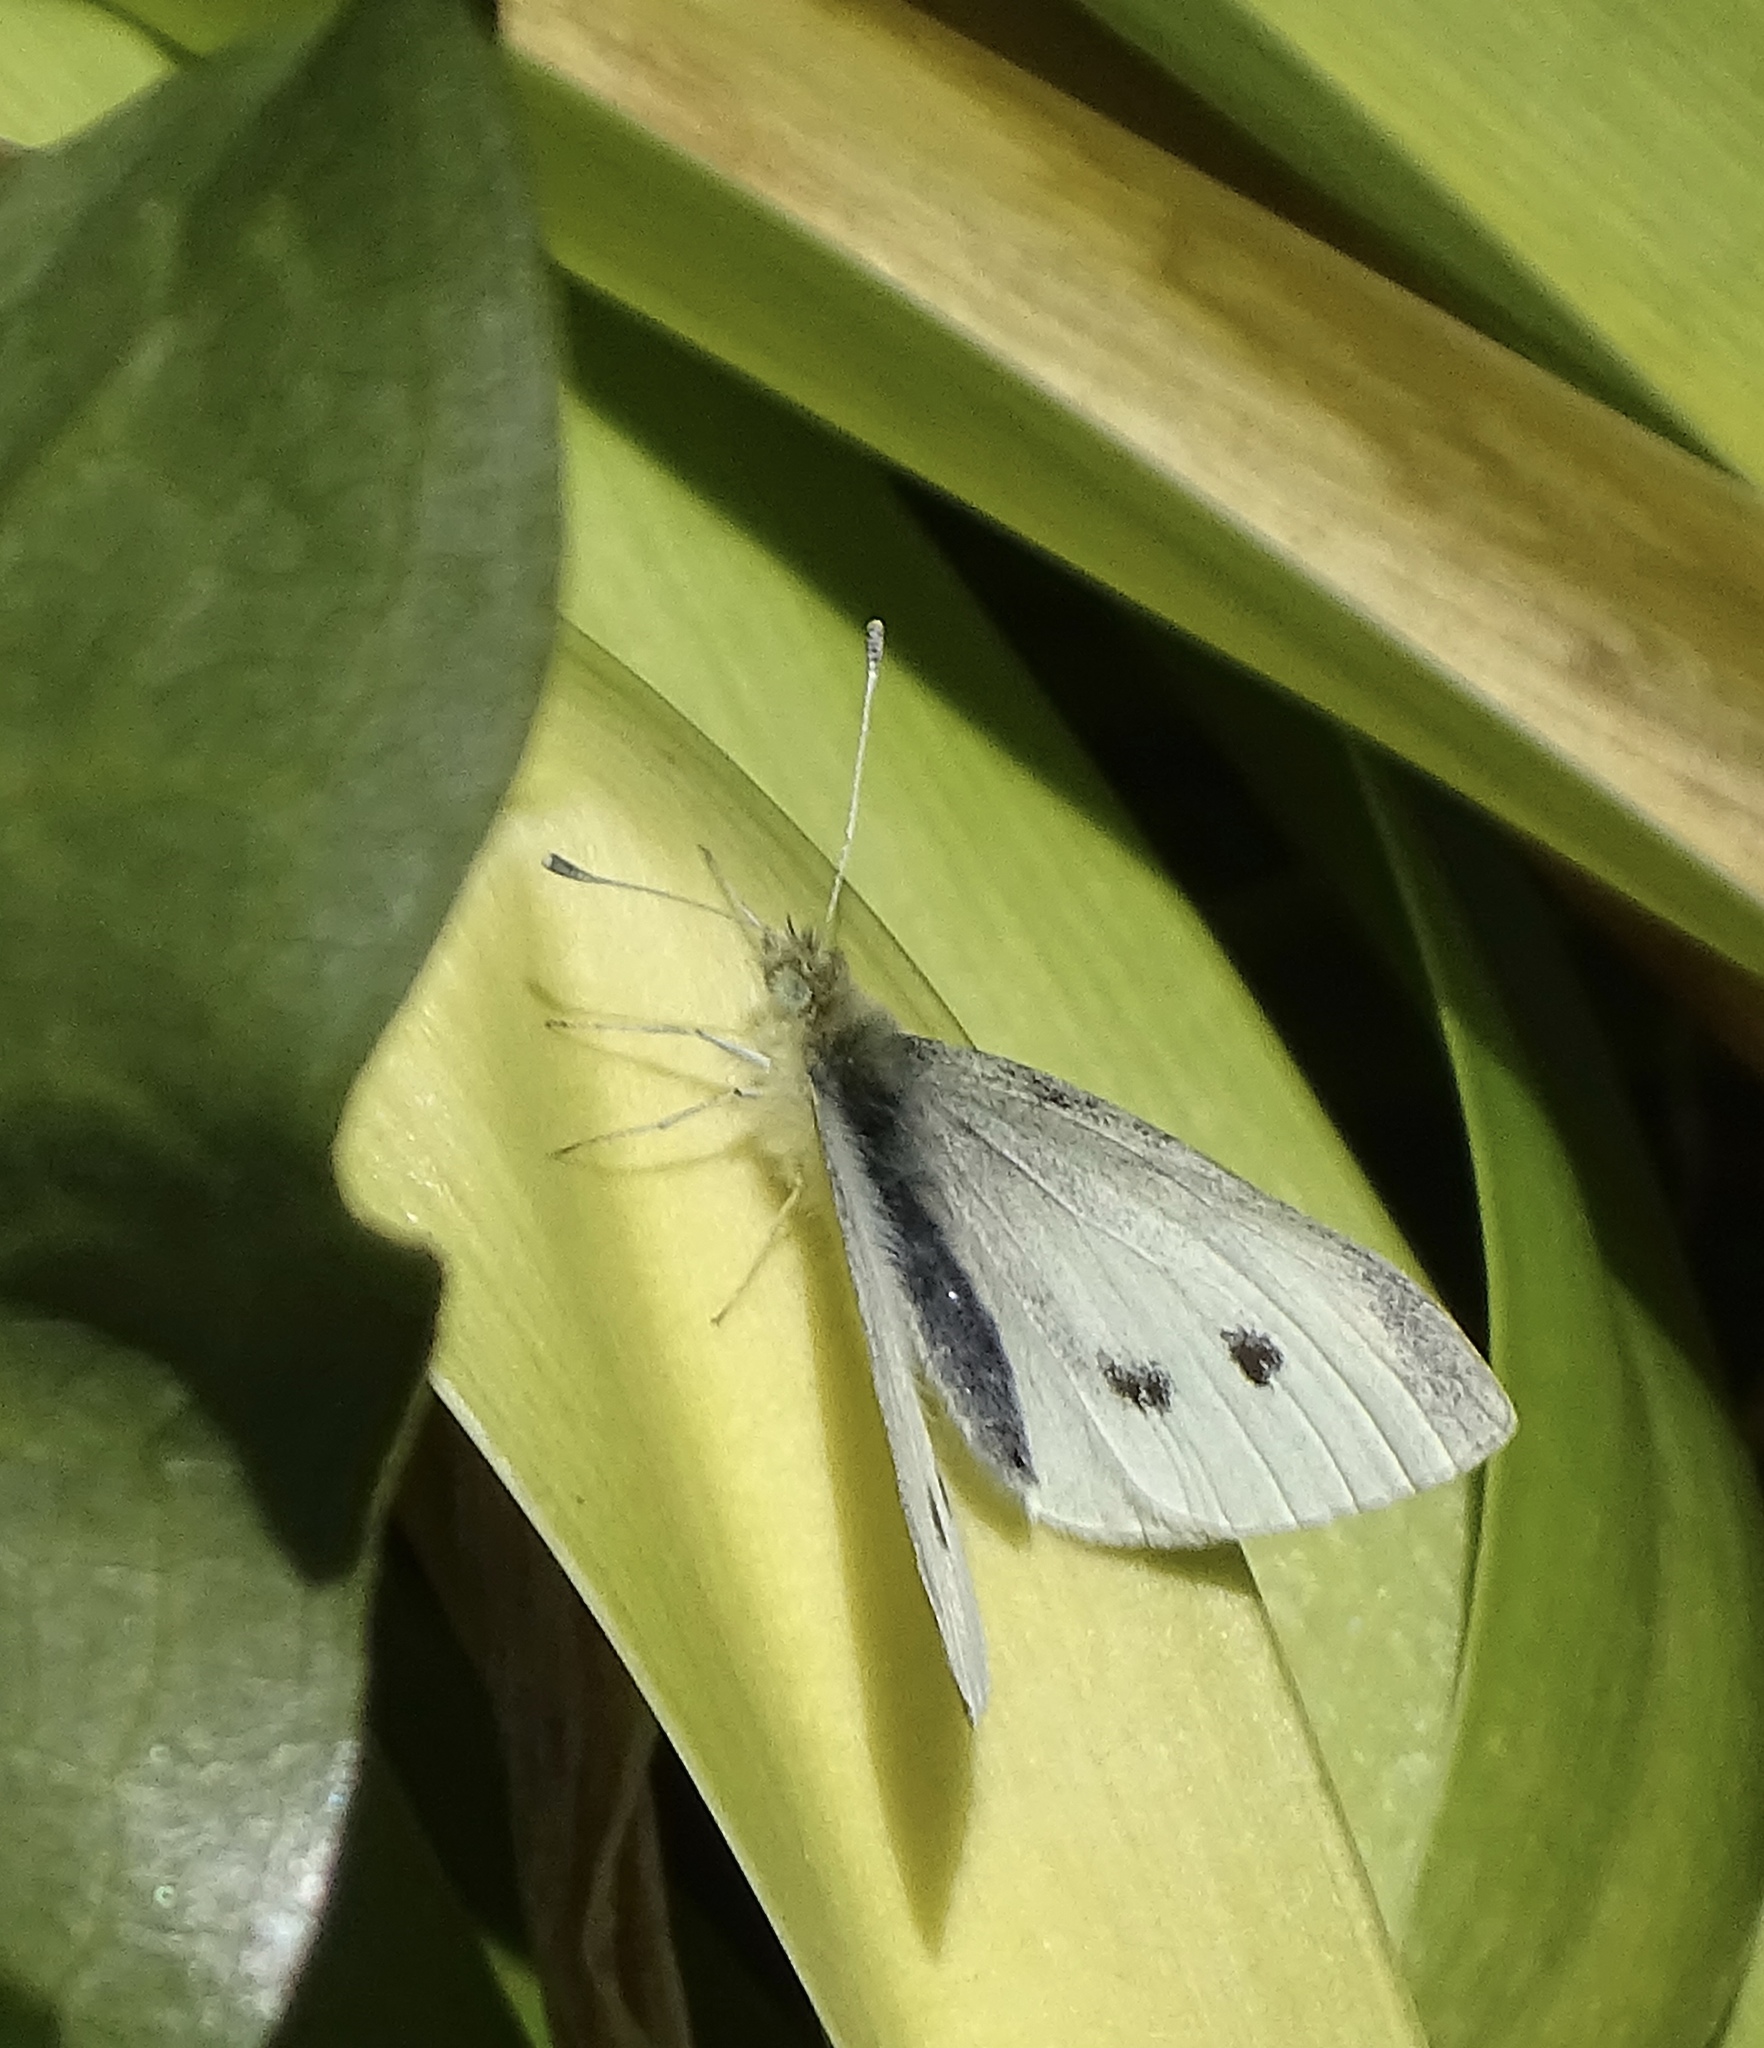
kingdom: Animalia
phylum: Arthropoda
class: Insecta
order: Lepidoptera
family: Pieridae
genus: Pieris
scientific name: Pieris rapae
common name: Small white
